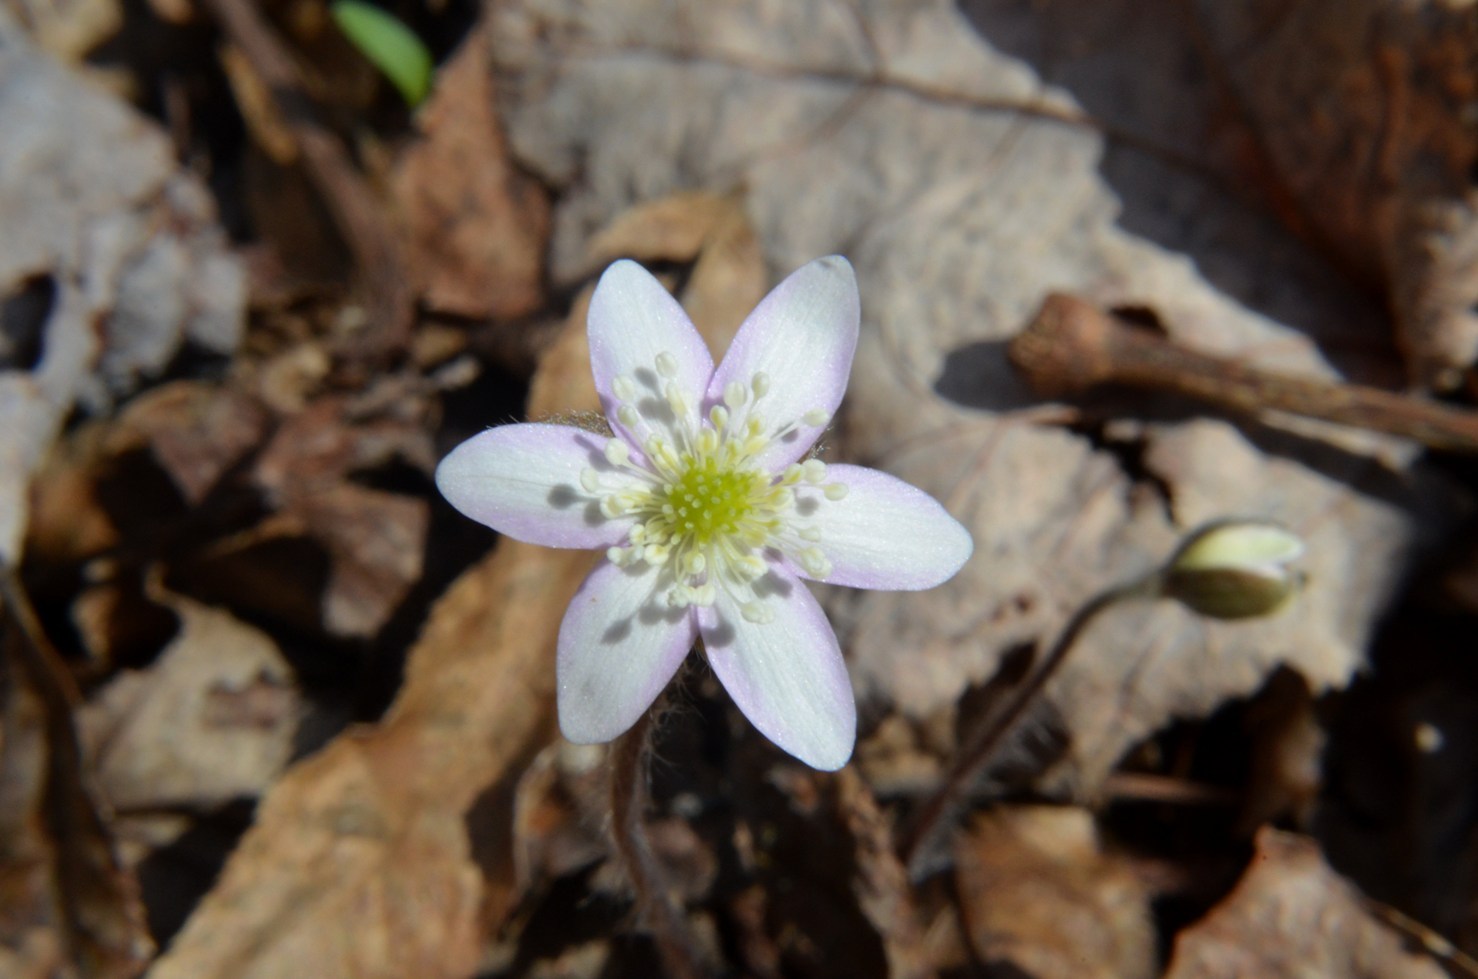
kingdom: Plantae
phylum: Tracheophyta
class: Magnoliopsida
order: Ranunculales
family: Ranunculaceae
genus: Hepatica
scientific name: Hepatica acutiloba
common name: Sharp-lobed hepatica
